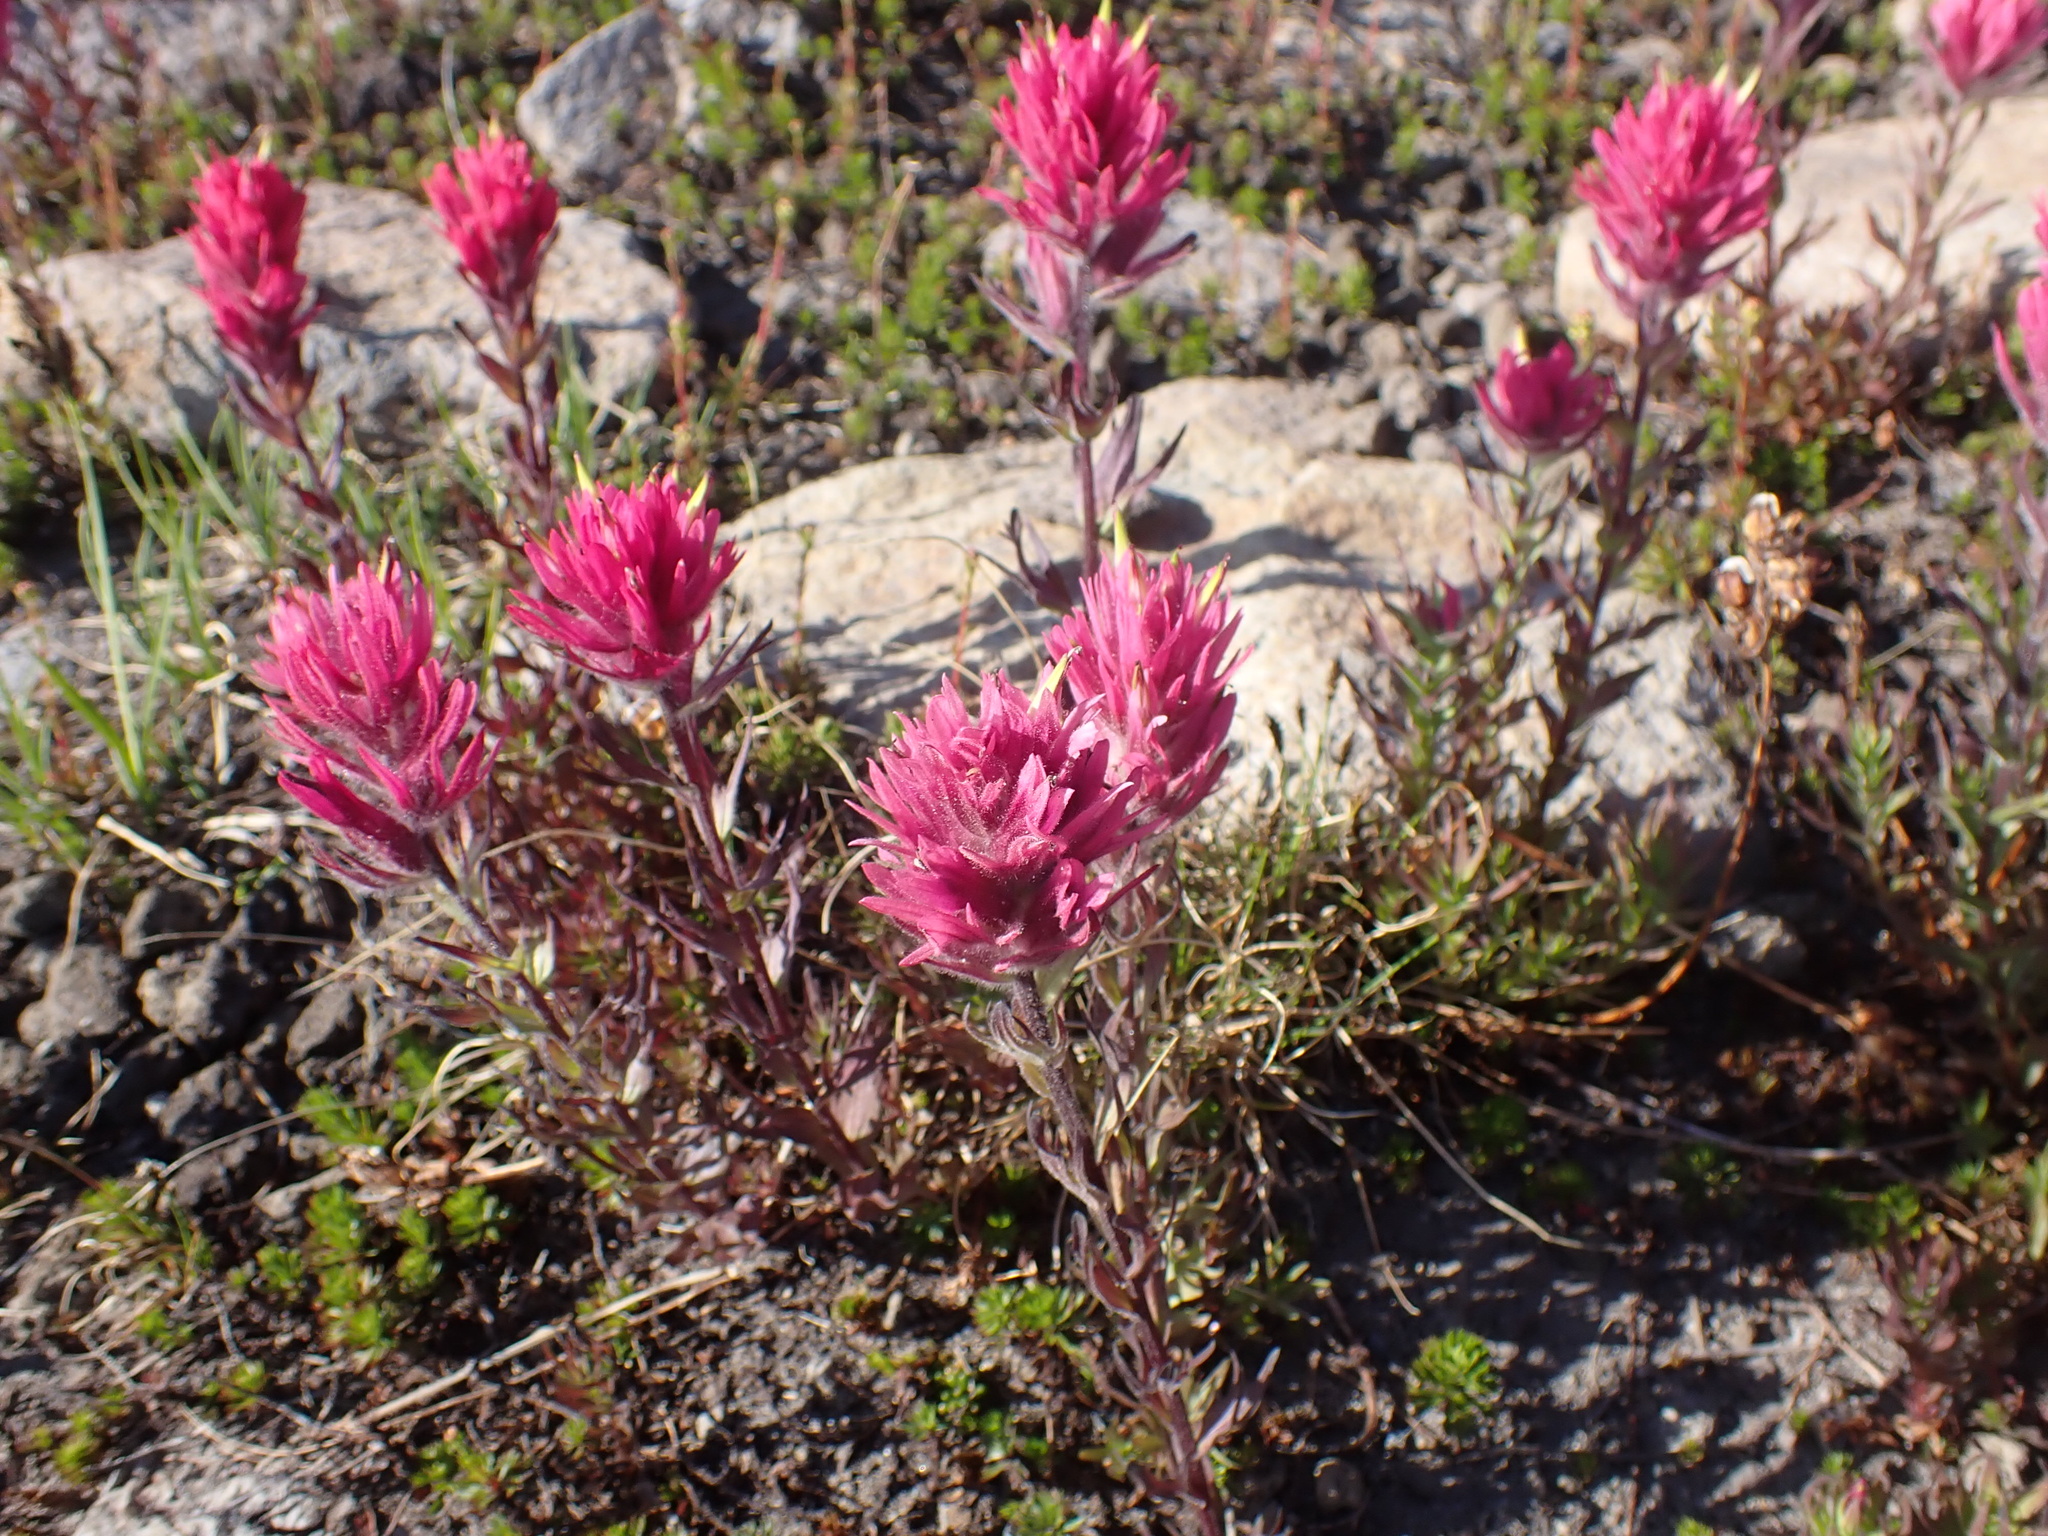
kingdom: Plantae
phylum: Tracheophyta
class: Magnoliopsida
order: Lamiales
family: Orobanchaceae
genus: Castilleja
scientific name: Castilleja parviflora
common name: Mountain paintbrush
